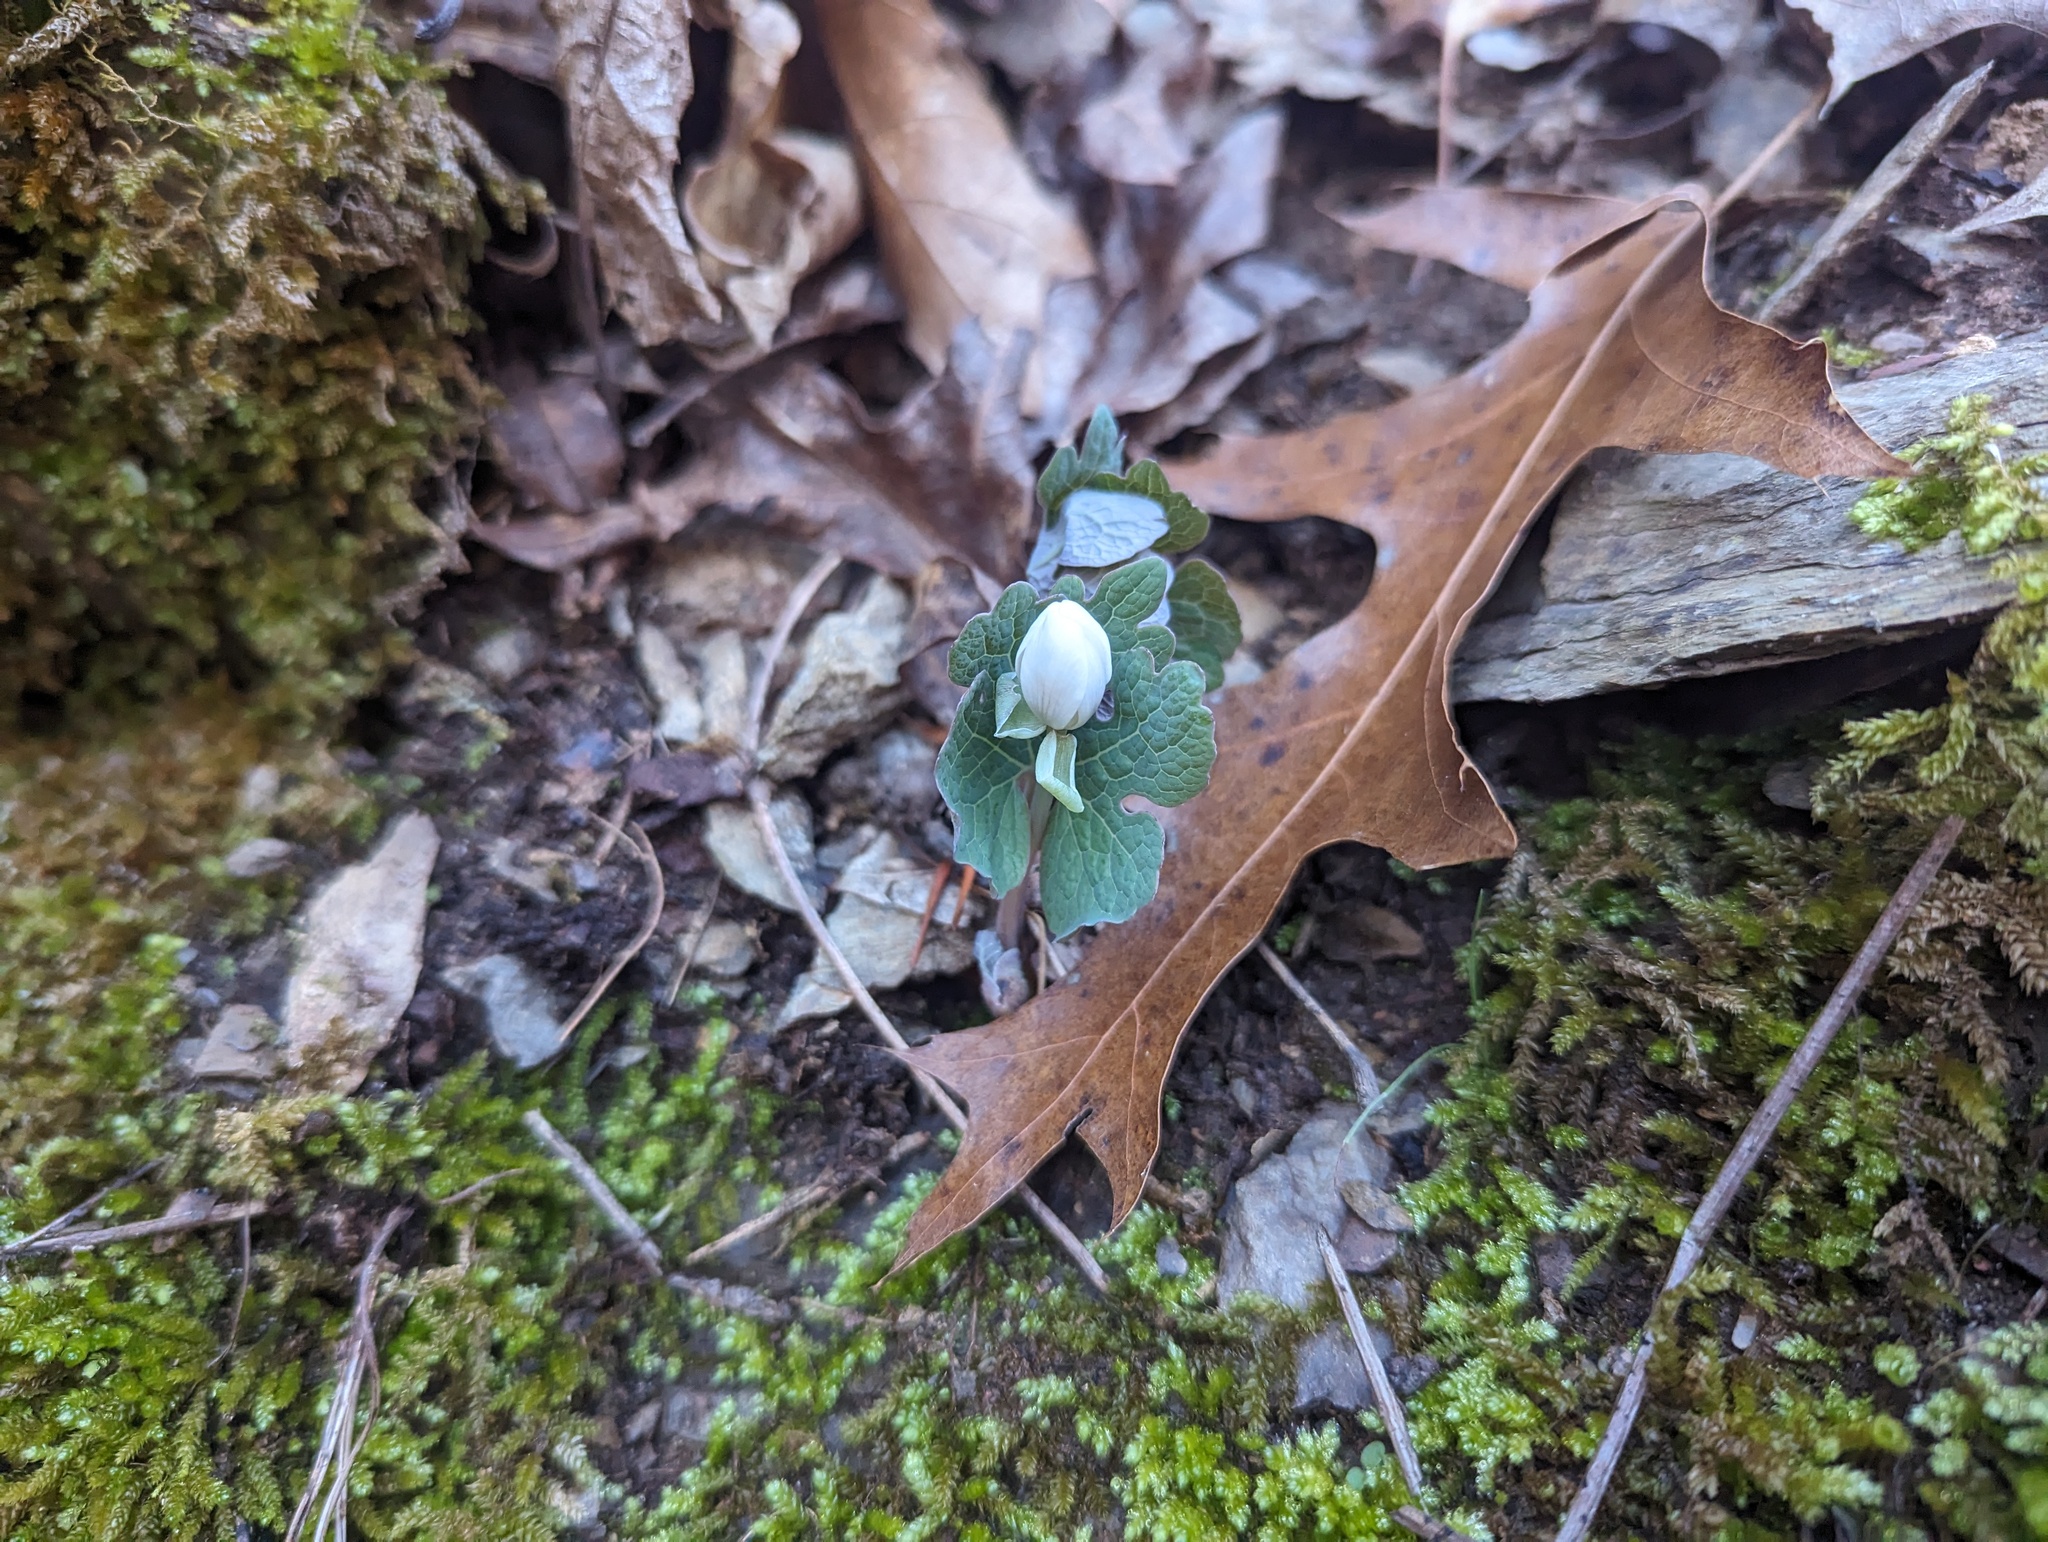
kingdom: Plantae
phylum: Tracheophyta
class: Magnoliopsida
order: Ranunculales
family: Papaveraceae
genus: Sanguinaria
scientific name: Sanguinaria canadensis
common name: Bloodroot
